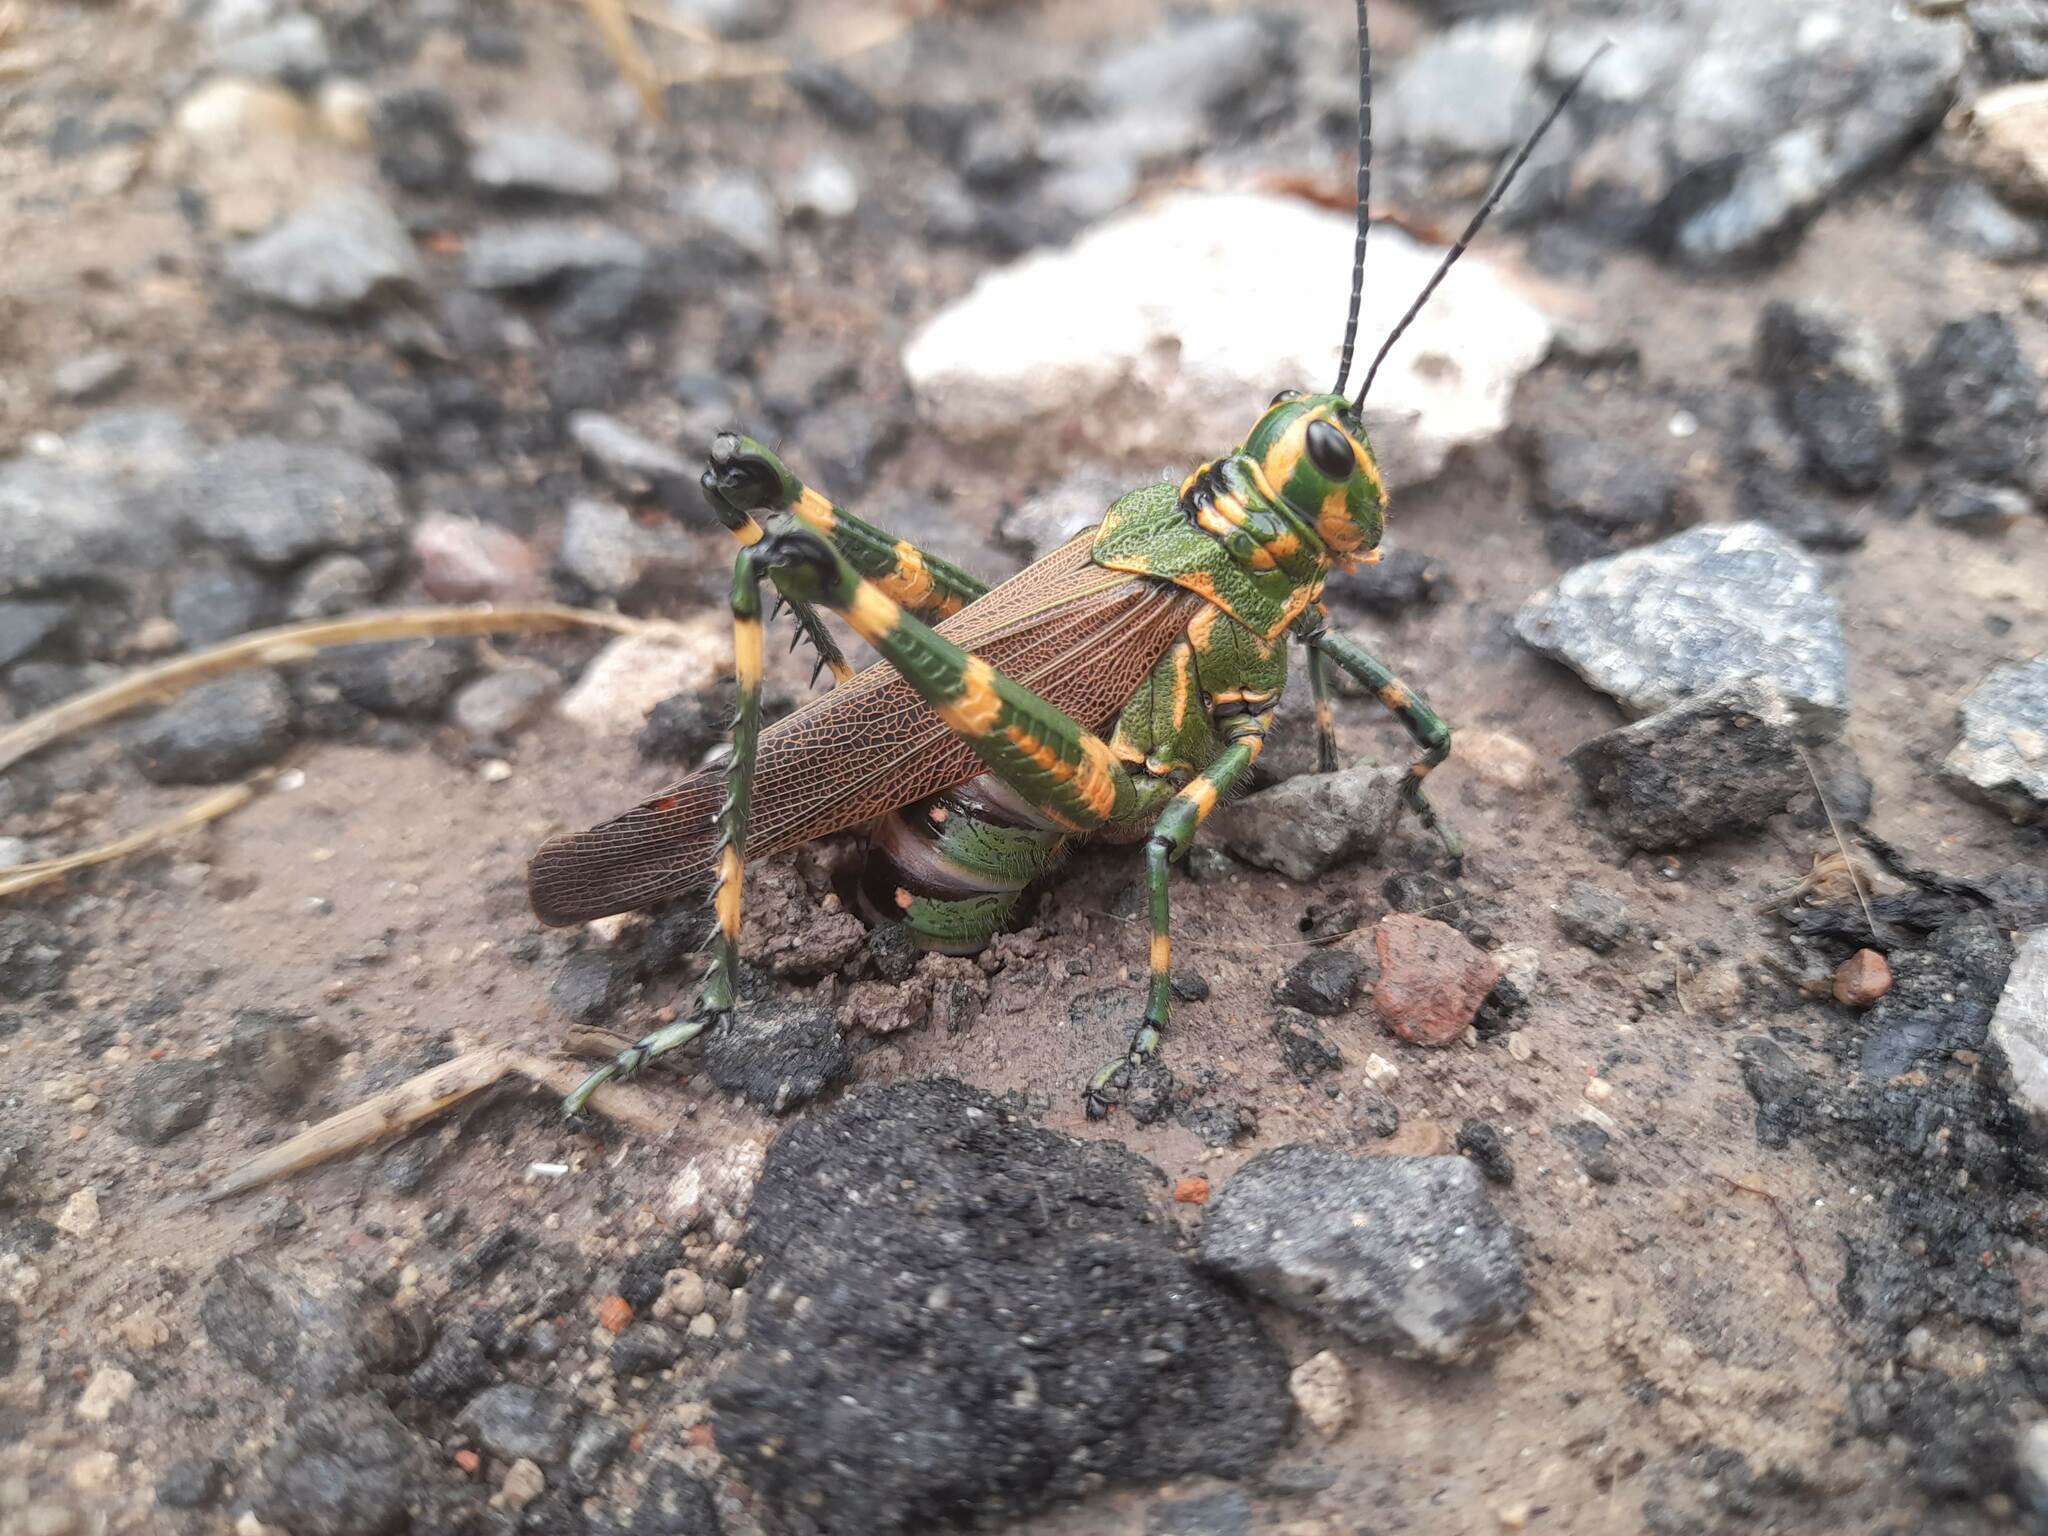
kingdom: Animalia
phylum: Arthropoda
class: Insecta
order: Orthoptera
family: Romaleidae
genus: Chromacris
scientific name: Chromacris speciosa
